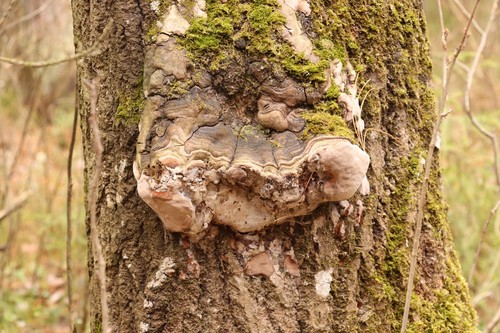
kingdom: Fungi
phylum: Basidiomycota
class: Agaricomycetes
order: Hymenochaetales
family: Hymenochaetaceae
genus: Phellinus
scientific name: Phellinus tremulae
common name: Aspen bracket
